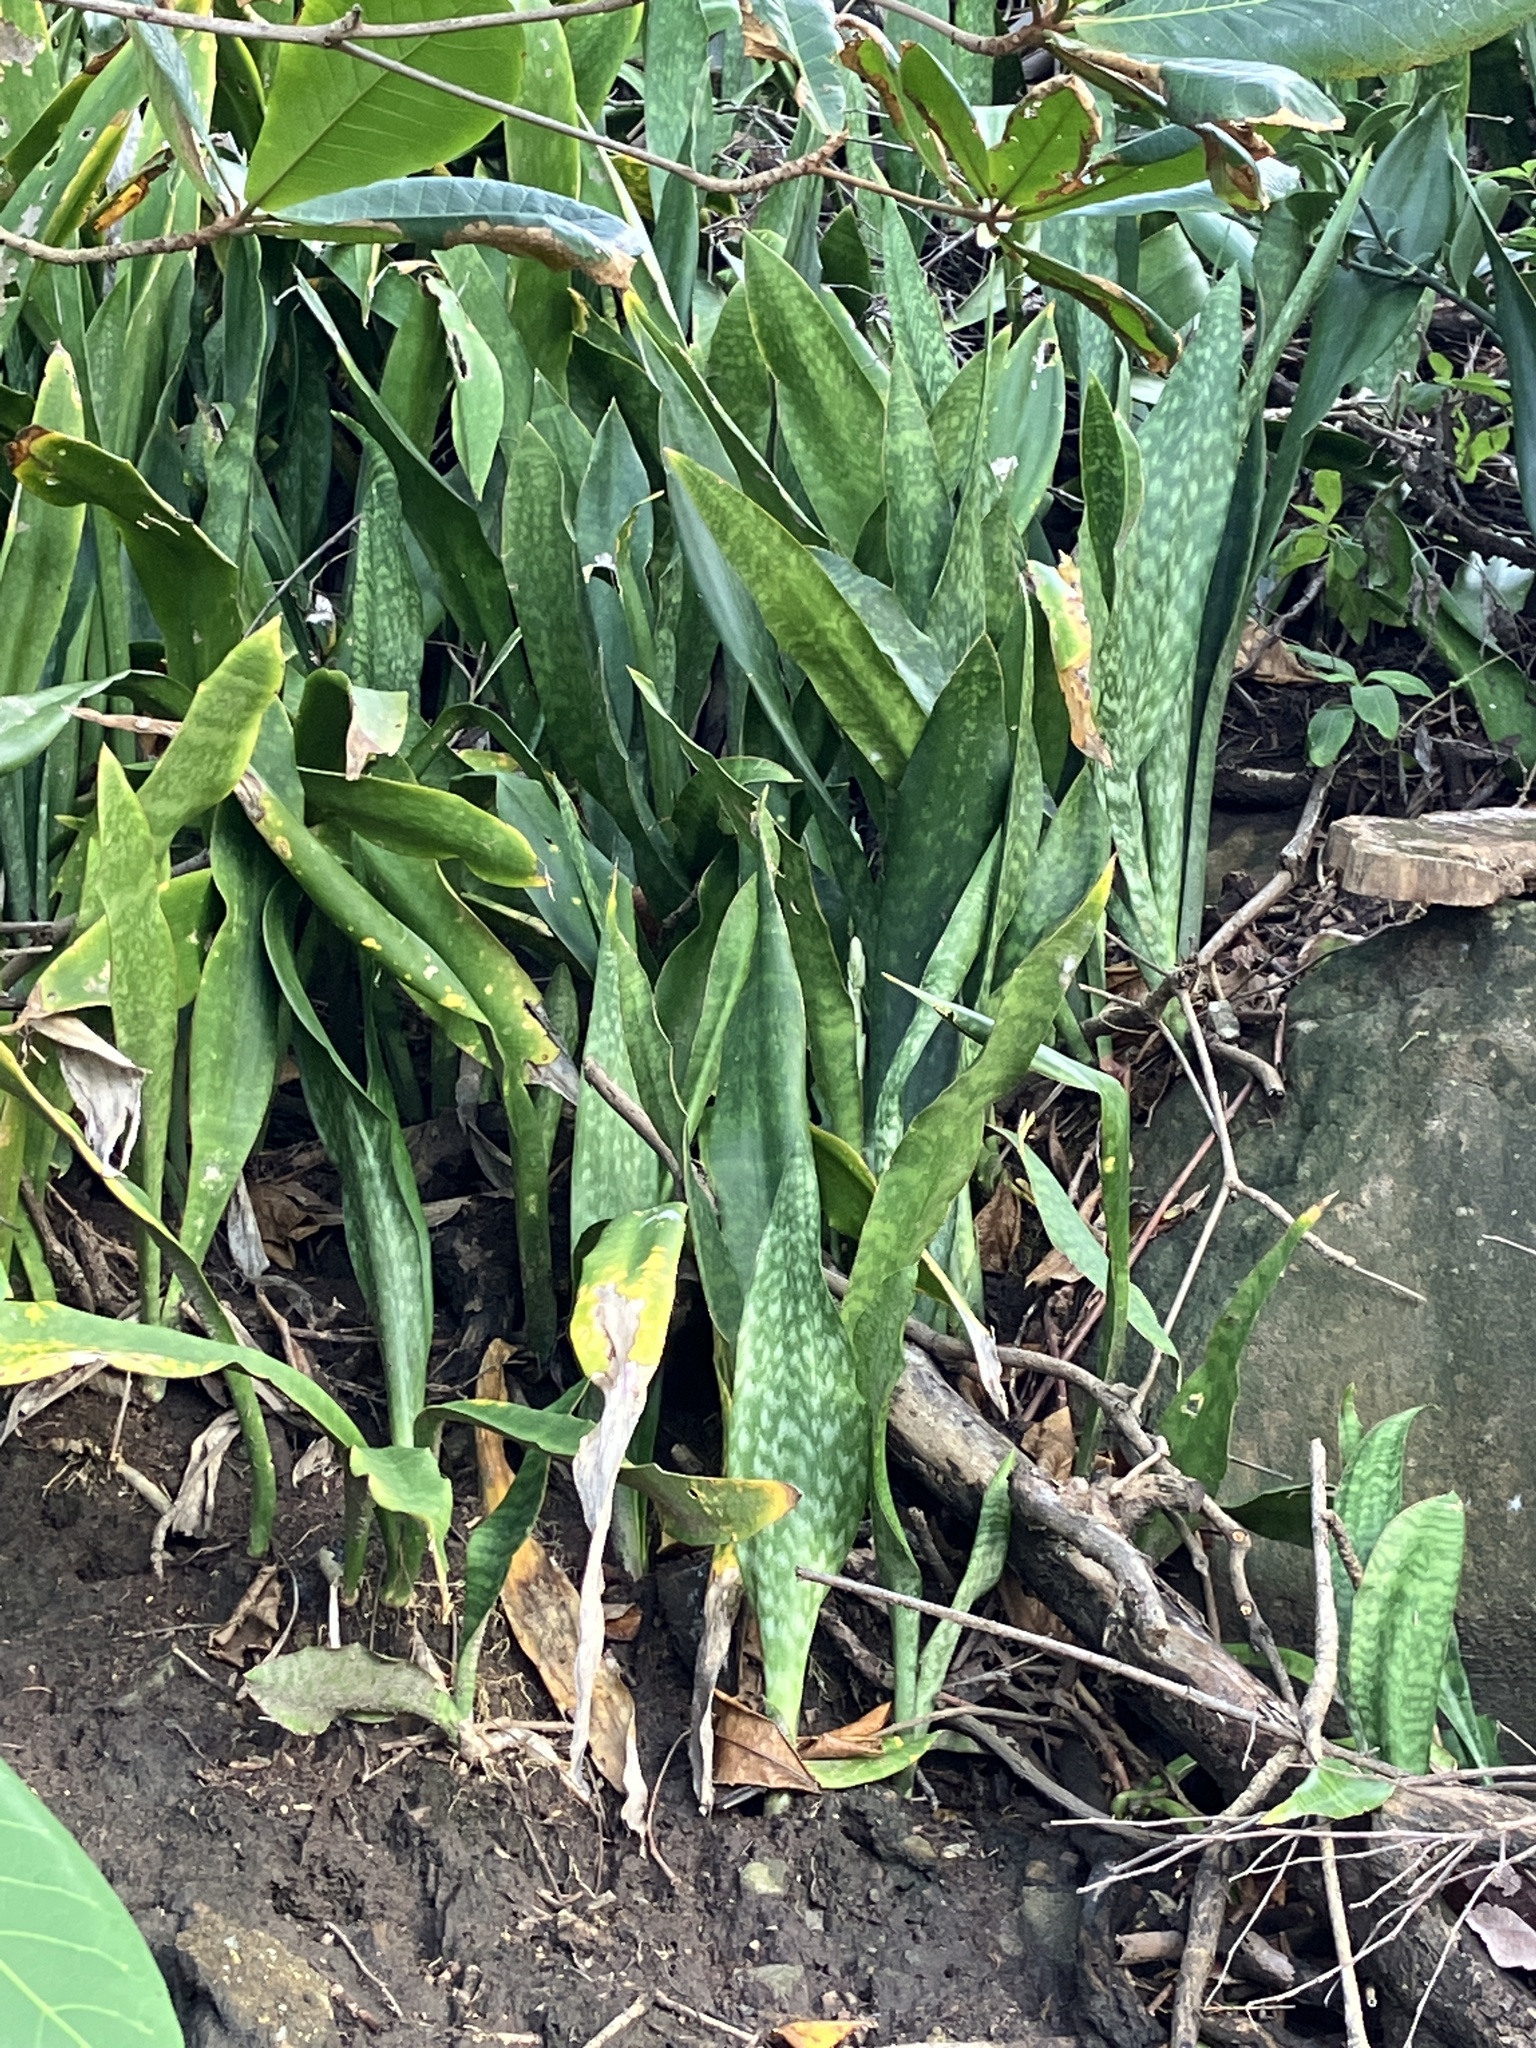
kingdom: Plantae
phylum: Tracheophyta
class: Liliopsida
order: Asparagales
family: Asparagaceae
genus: Dracaena
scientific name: Dracaena hyacinthoides
